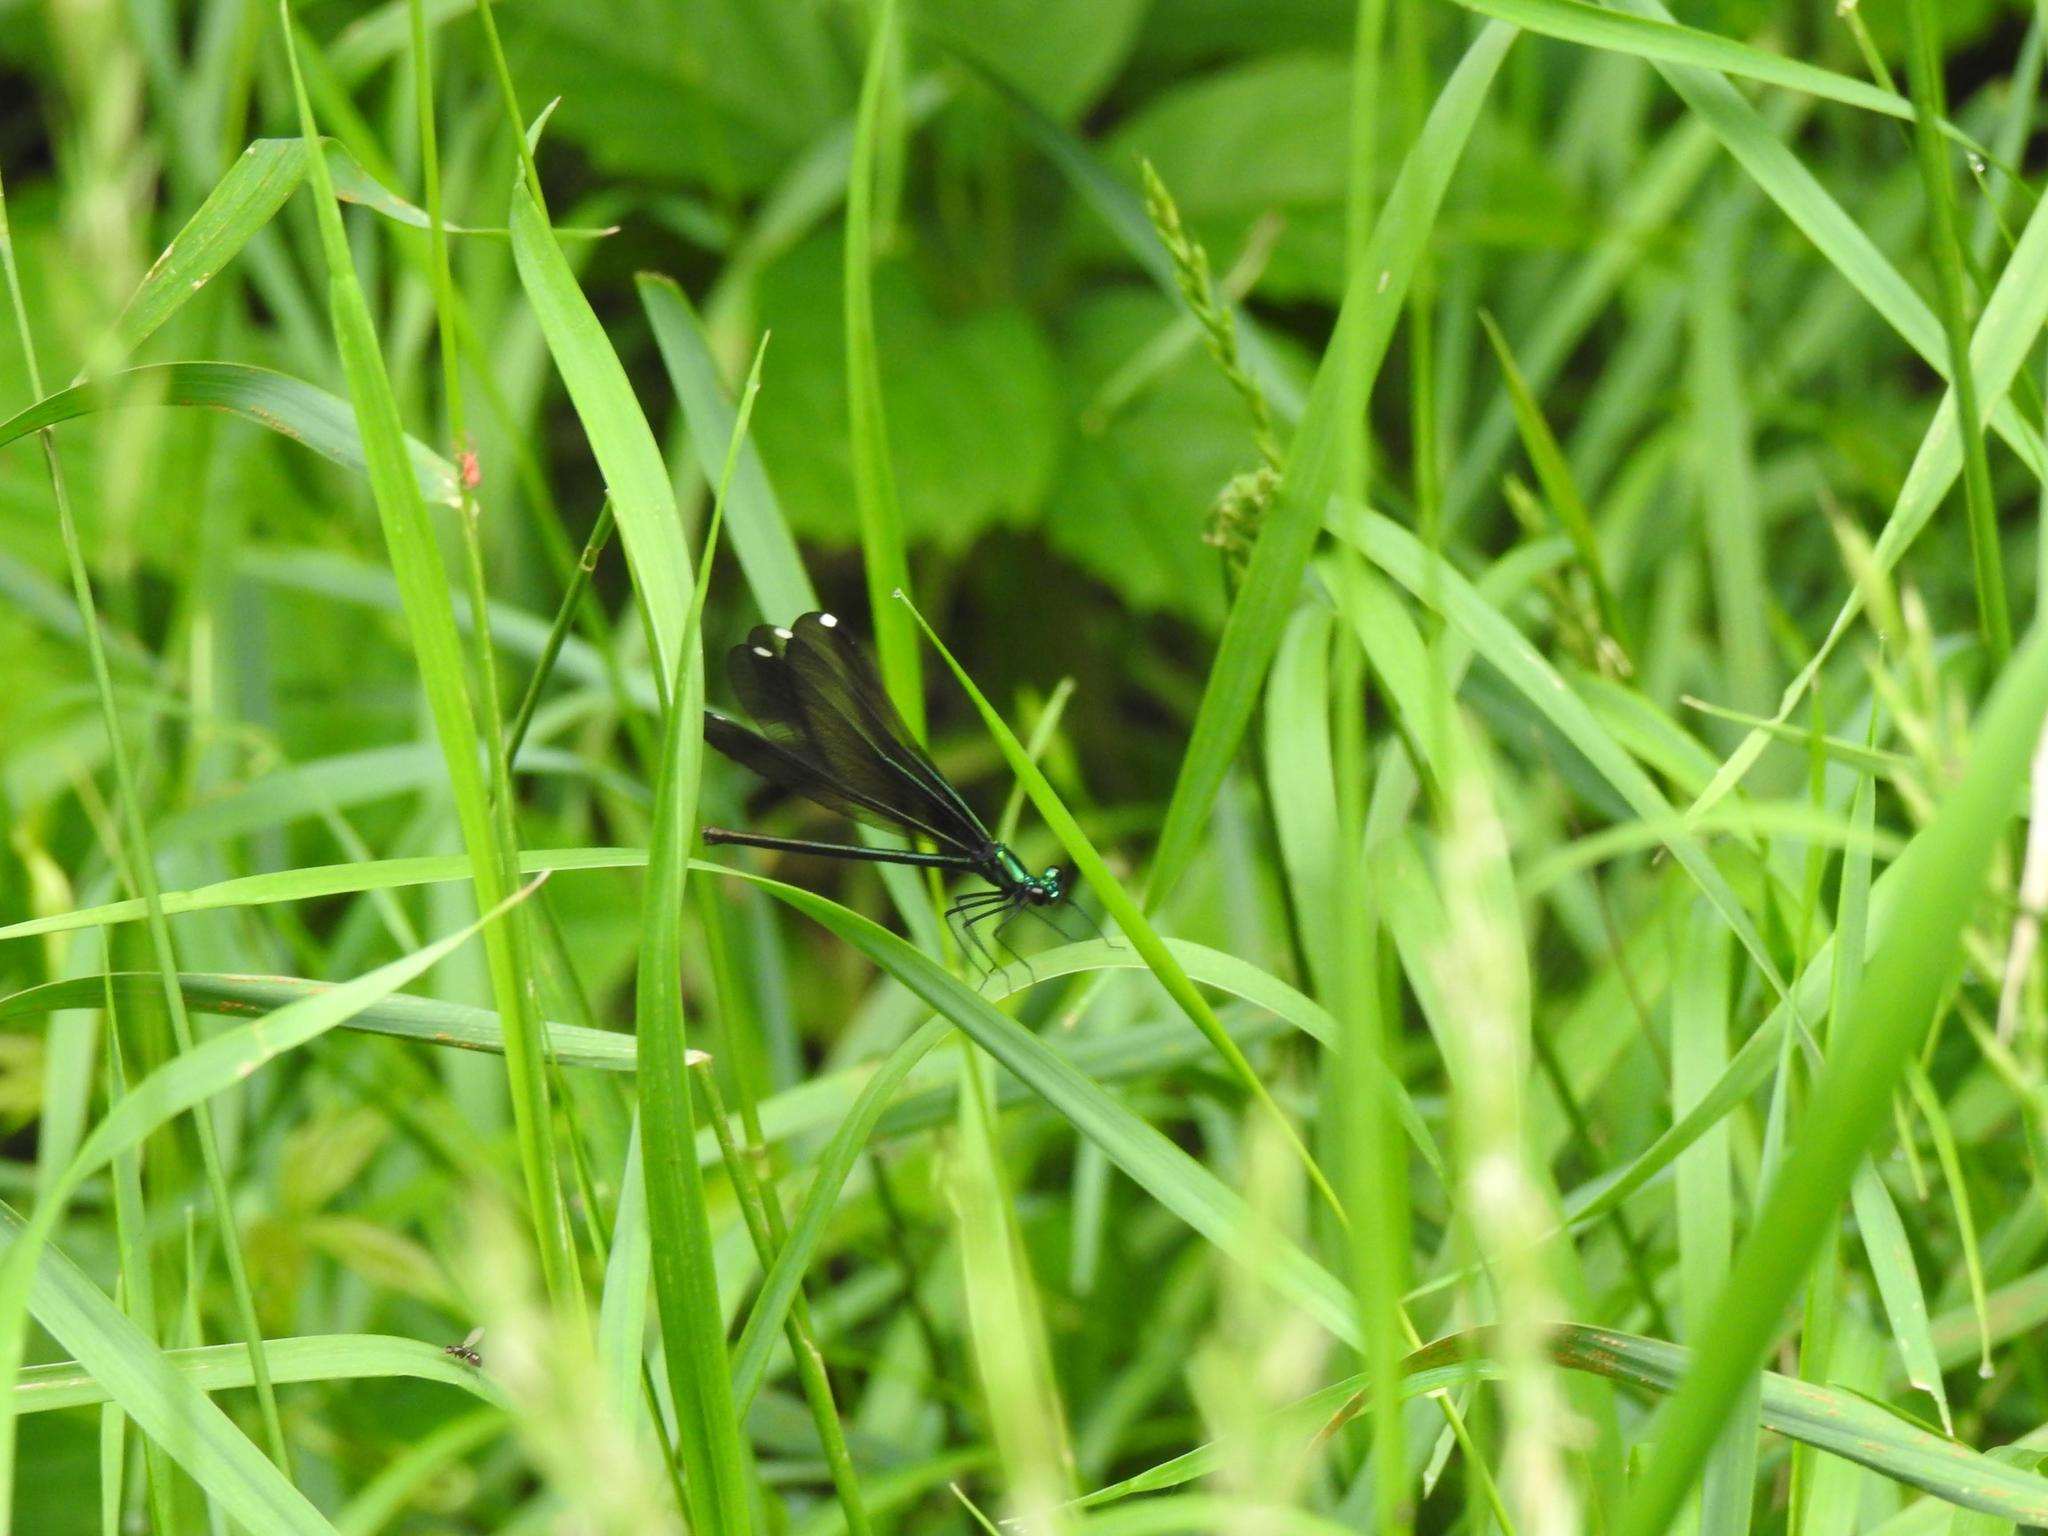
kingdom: Animalia
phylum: Arthropoda
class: Insecta
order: Odonata
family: Calopterygidae
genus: Calopteryx
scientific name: Calopteryx maculata
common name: Ebony jewelwing
